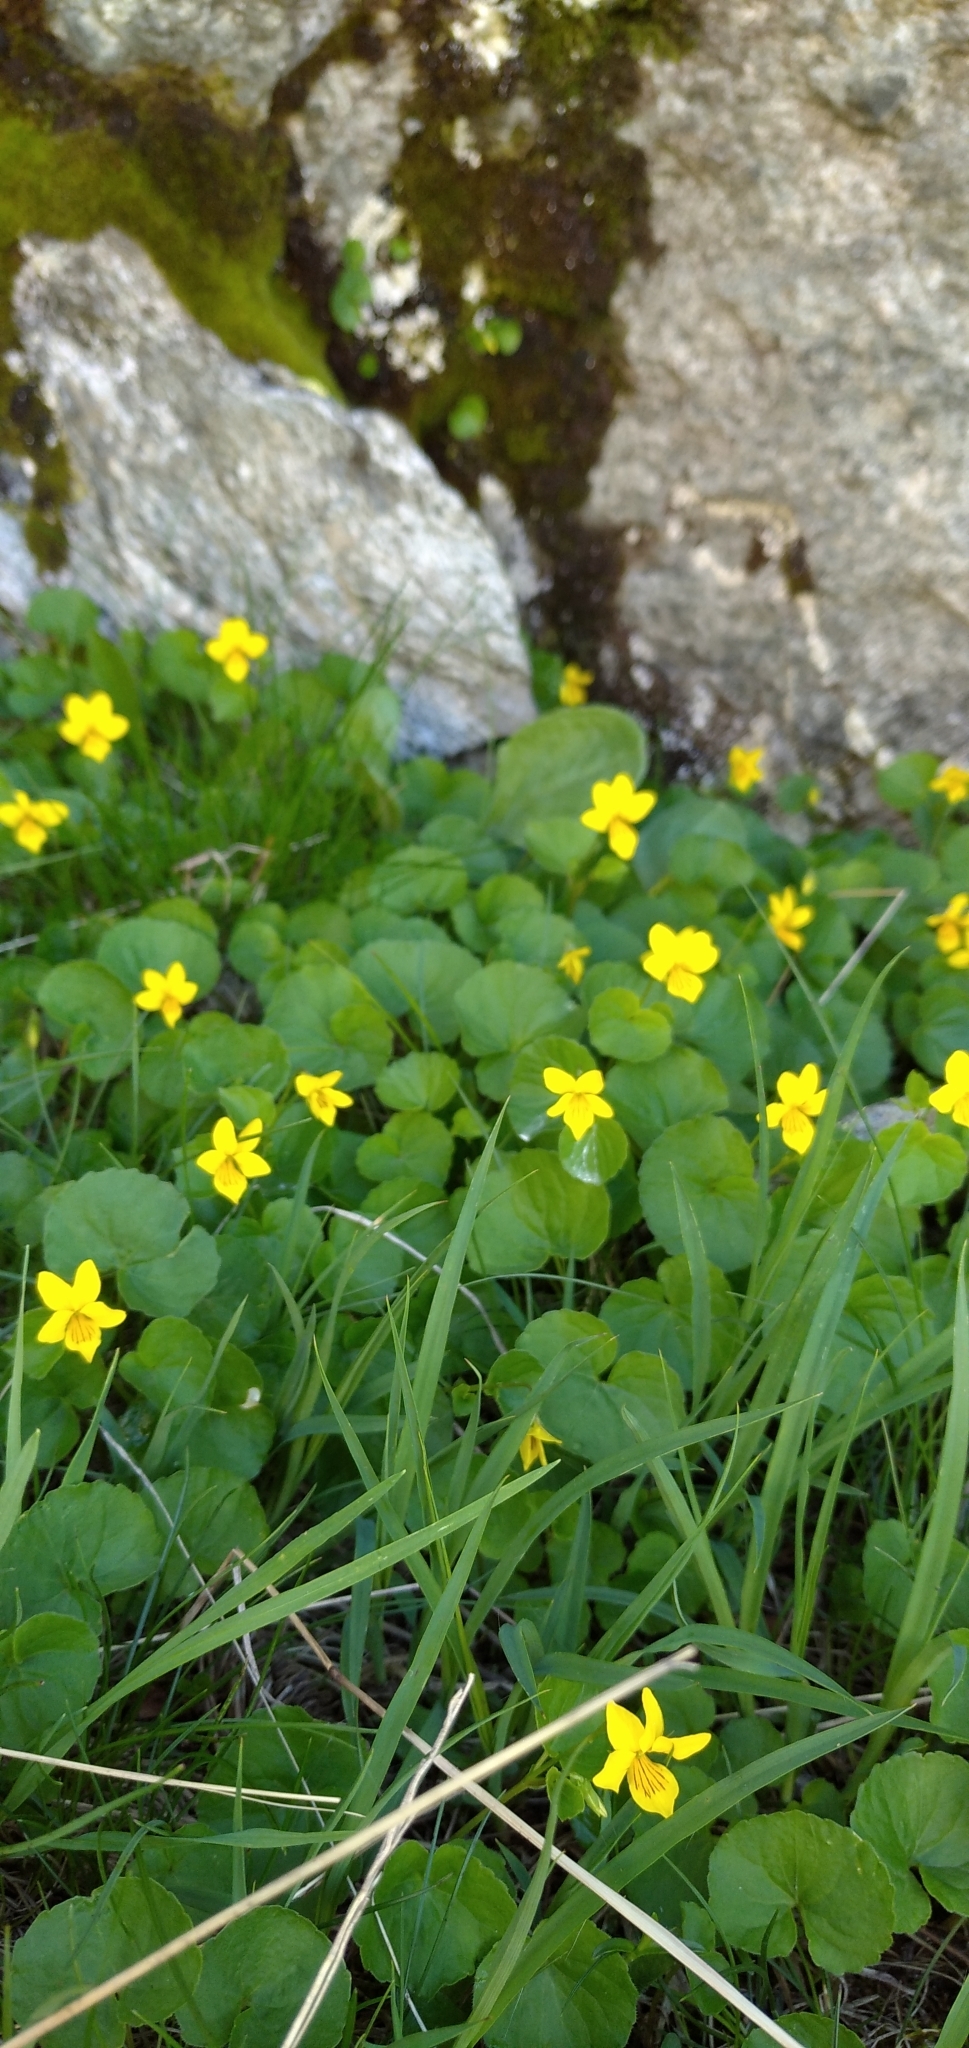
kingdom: Plantae
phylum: Tracheophyta
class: Magnoliopsida
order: Malpighiales
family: Violaceae
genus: Viola
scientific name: Viola biflora
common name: Alpine yellow violet
